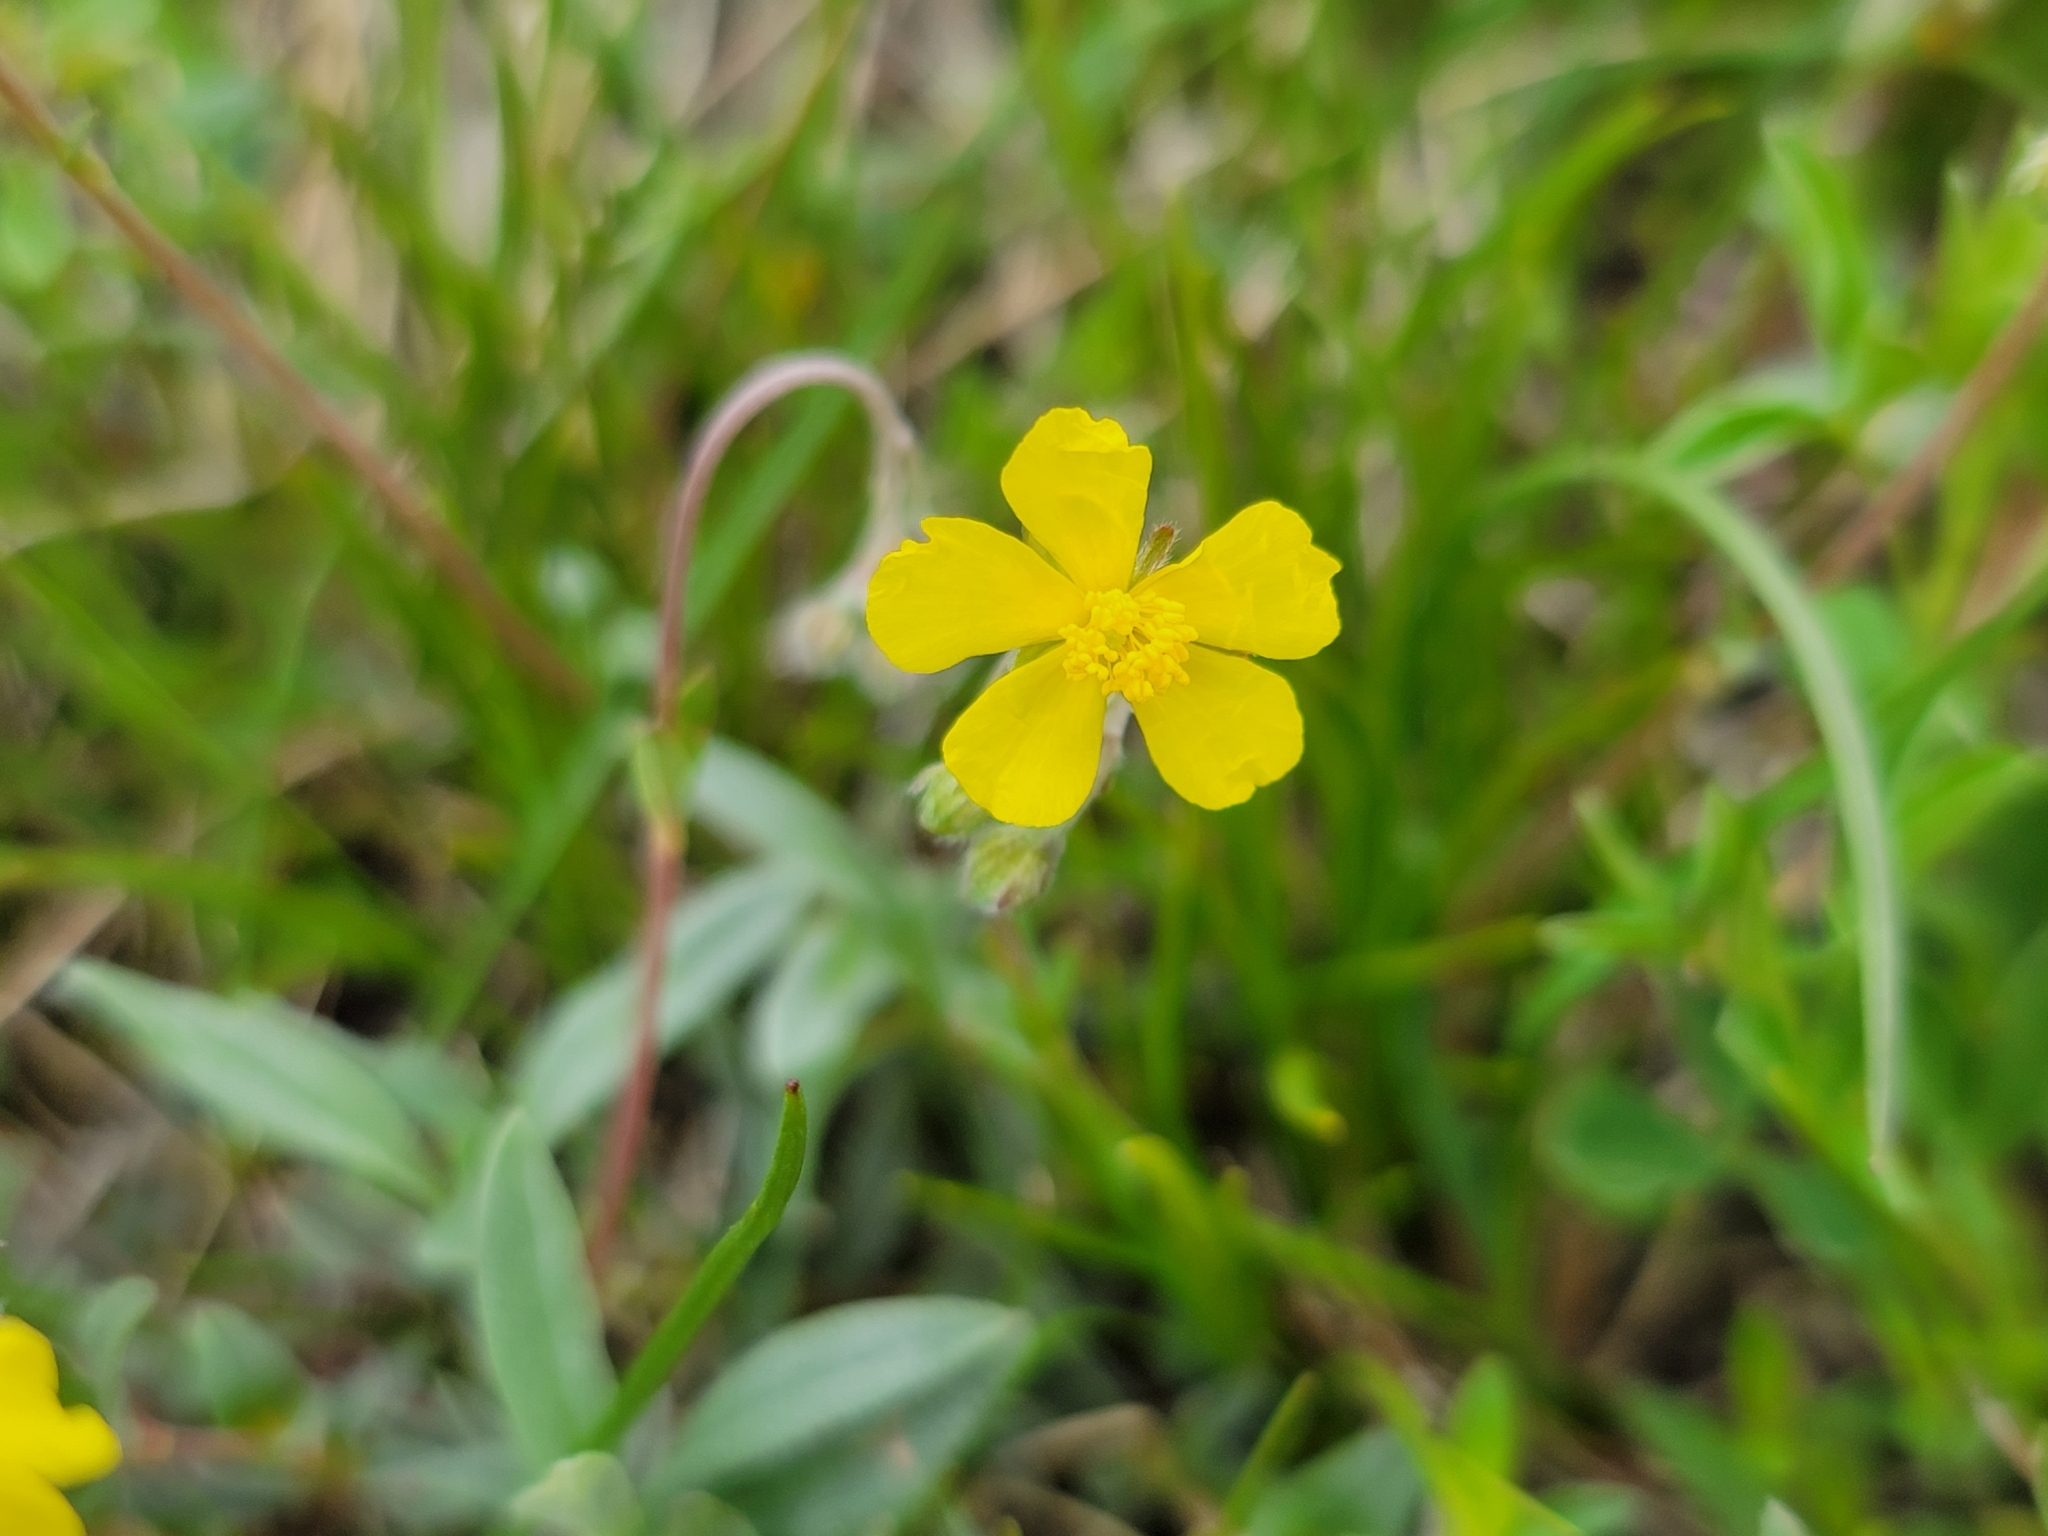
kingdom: Plantae
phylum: Tracheophyta
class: Magnoliopsida
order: Malvales
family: Cistaceae
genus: Helianthemum
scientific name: Helianthemum nummularium
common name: Common rock-rose
